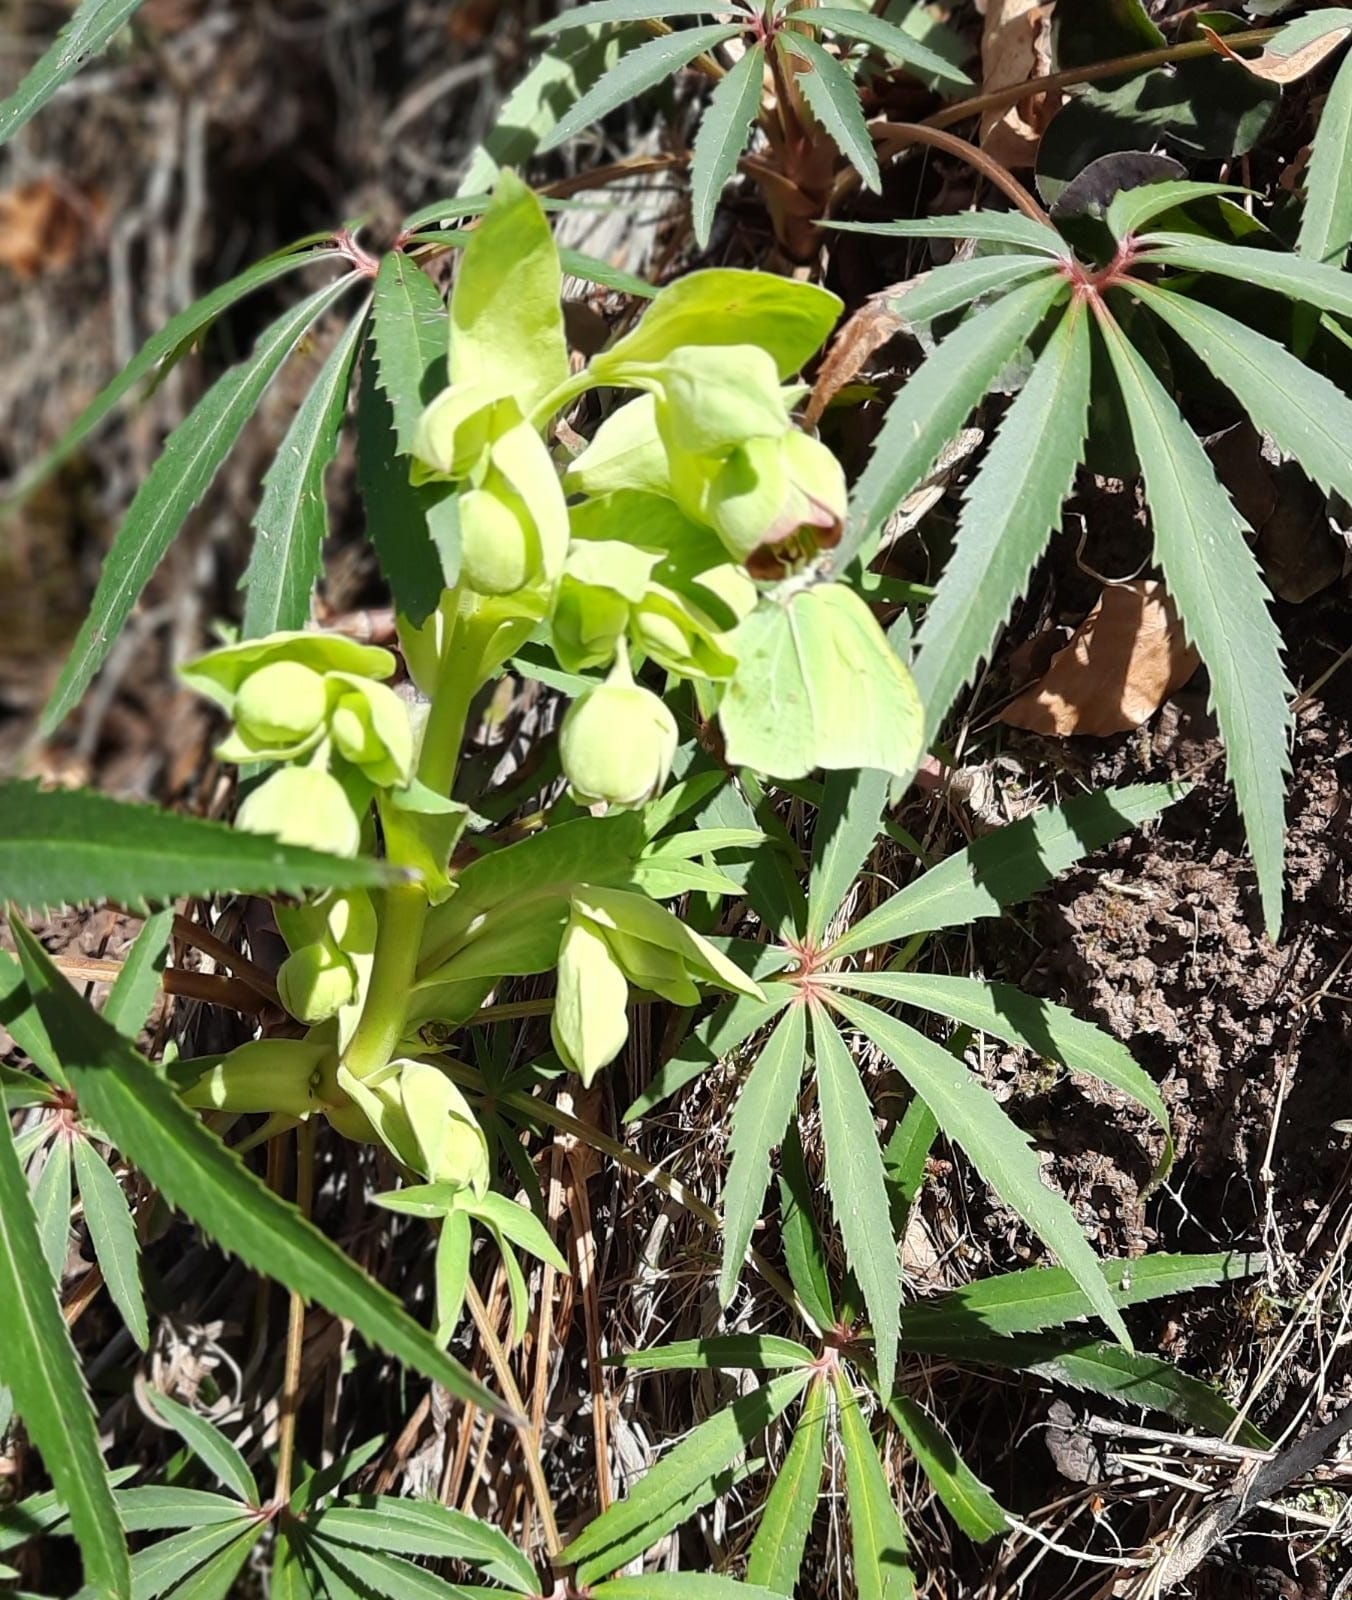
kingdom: Animalia
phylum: Arthropoda
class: Insecta
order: Lepidoptera
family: Pieridae
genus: Gonepteryx
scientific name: Gonepteryx rhamni
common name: Brimstone
